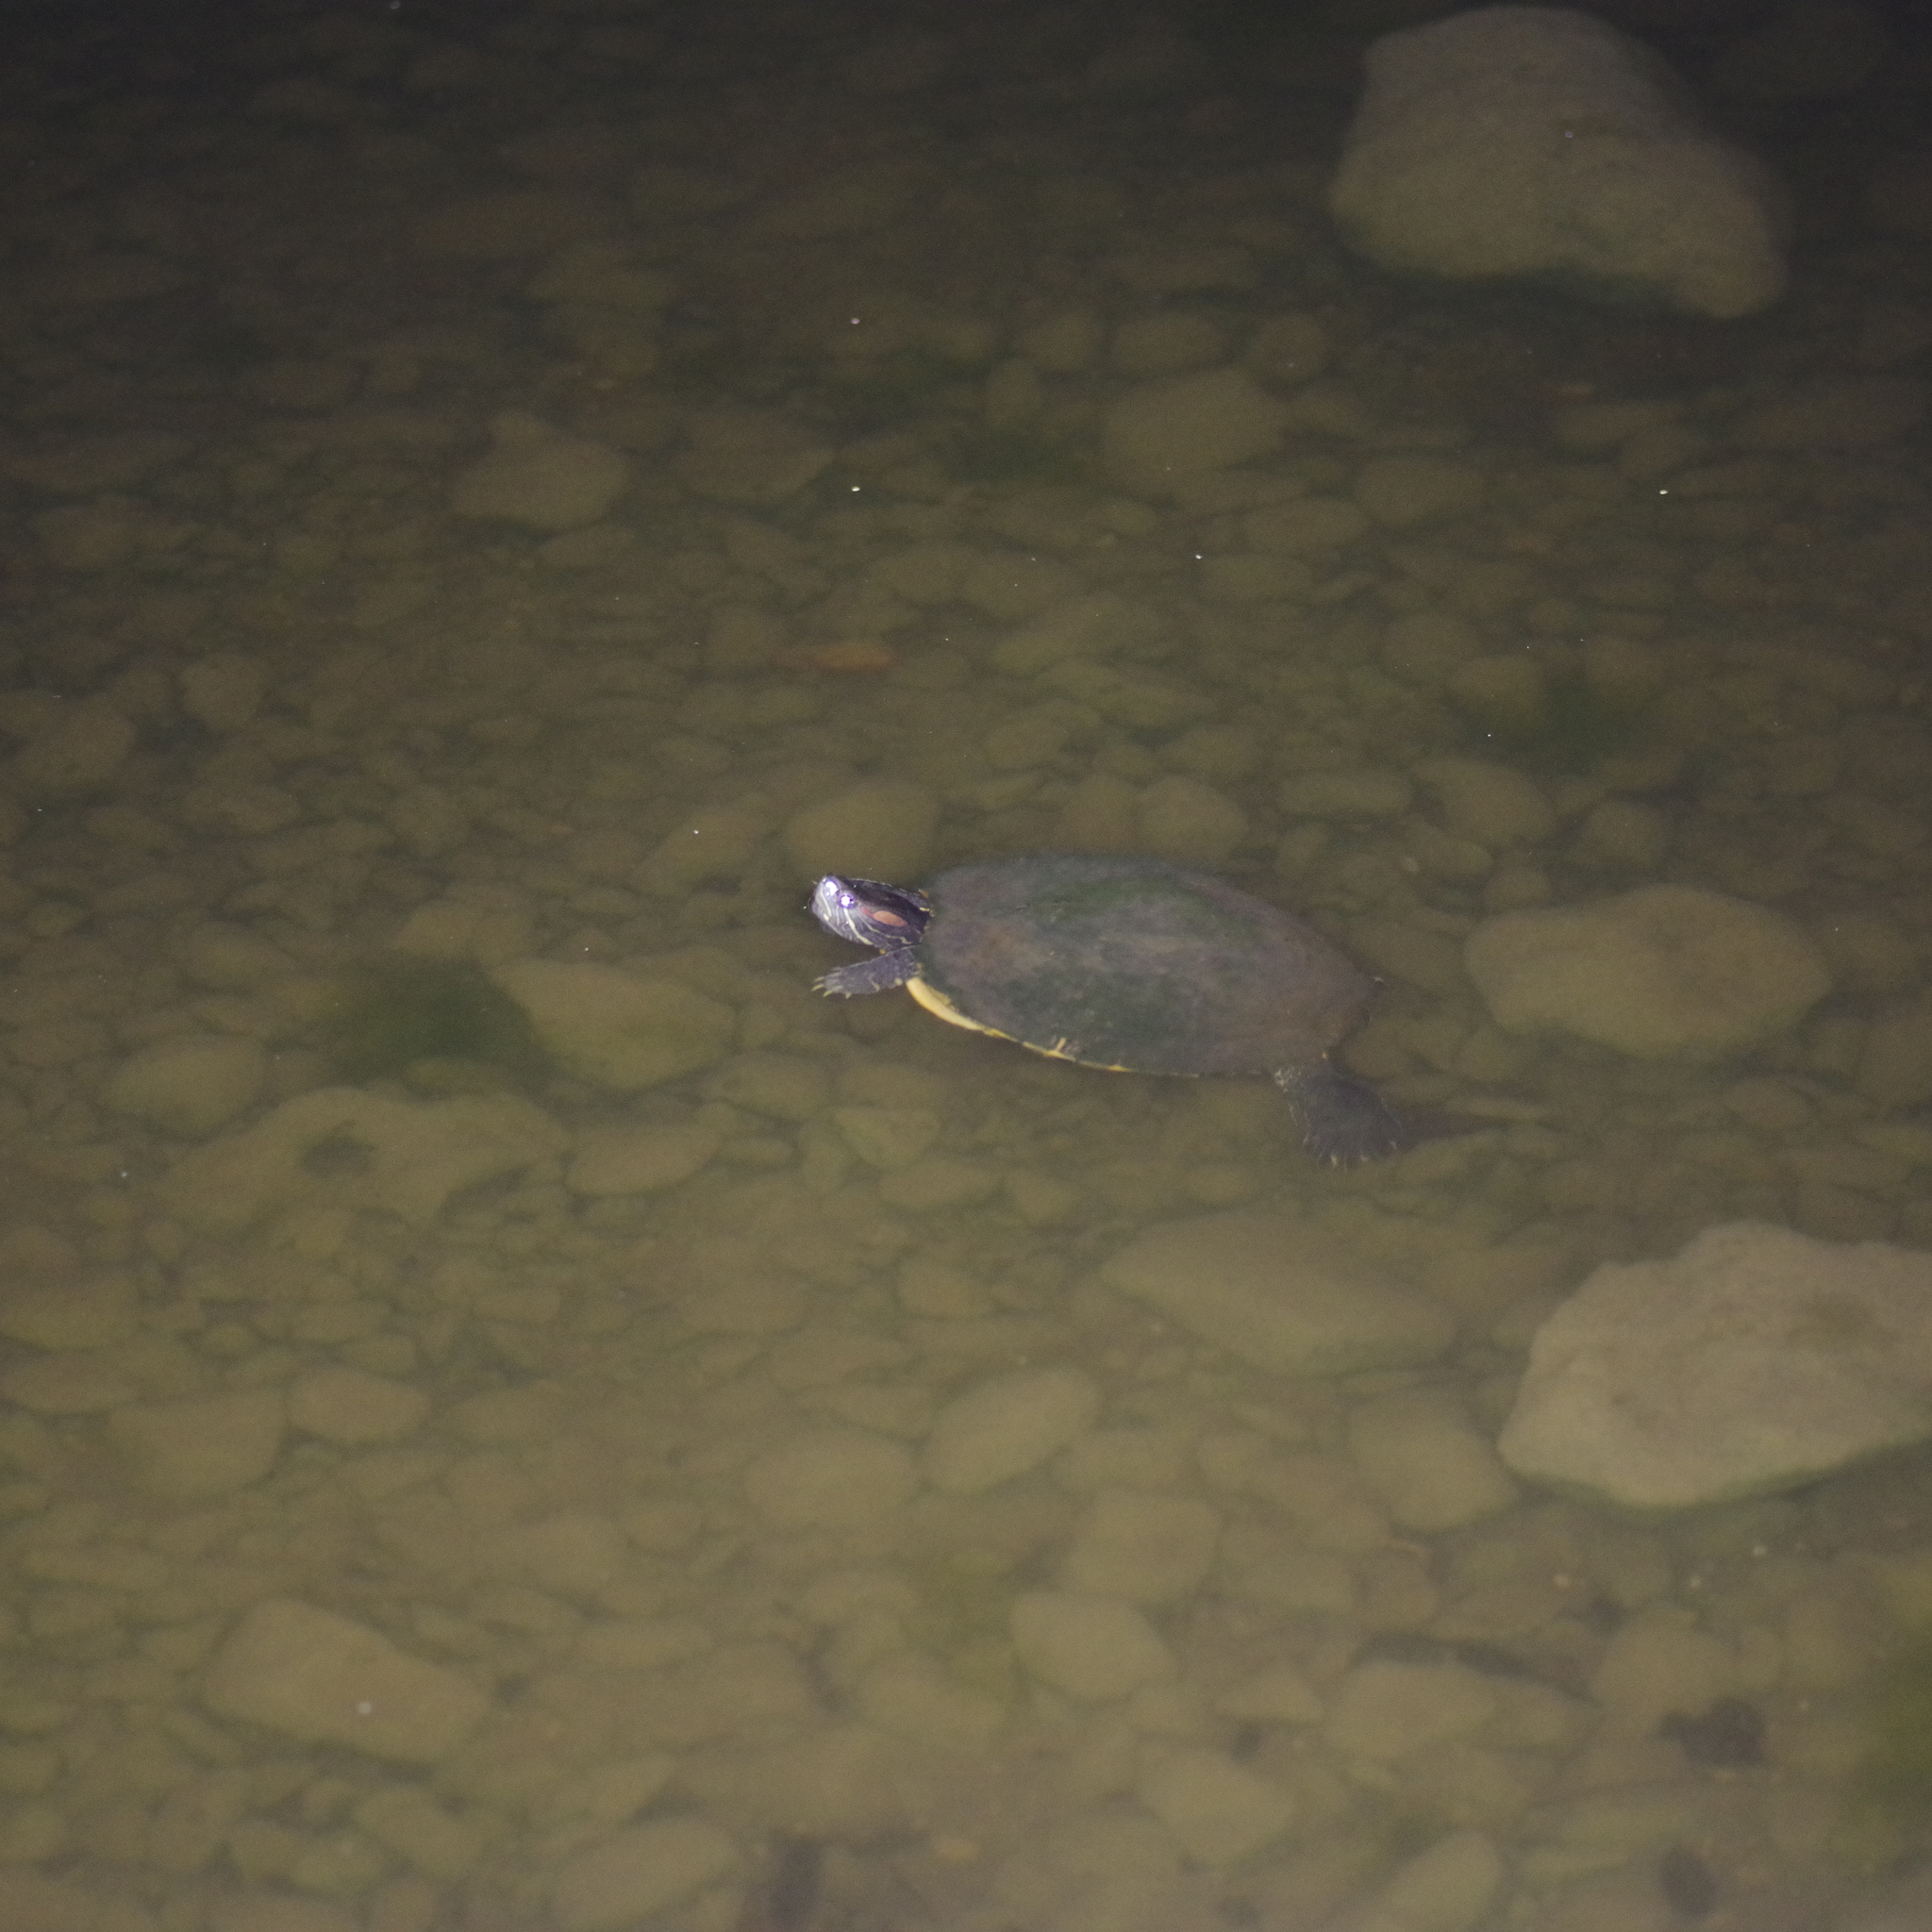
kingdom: Animalia
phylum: Chordata
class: Testudines
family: Emydidae
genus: Trachemys
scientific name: Trachemys scripta
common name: Slider
